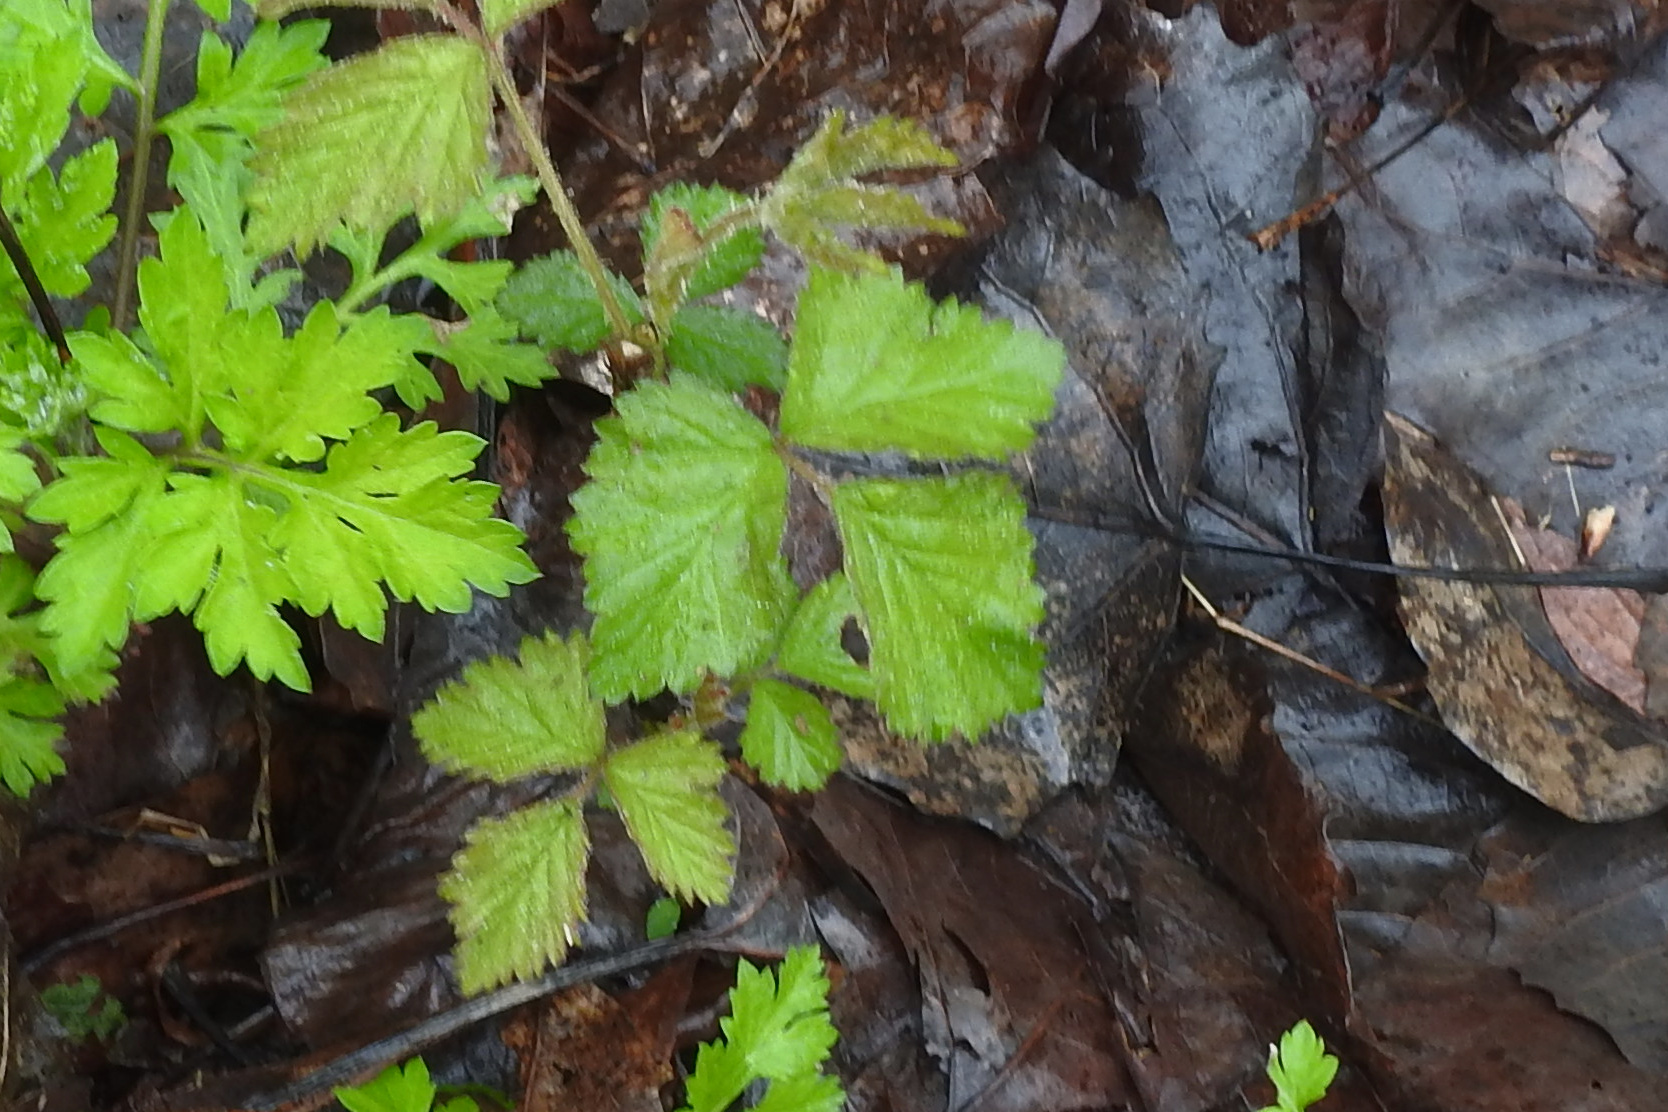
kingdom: Plantae
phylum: Tracheophyta
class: Magnoliopsida
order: Rosales
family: Rosaceae
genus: Potentilla
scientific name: Potentilla indica
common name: Yellow-flowered strawberry
